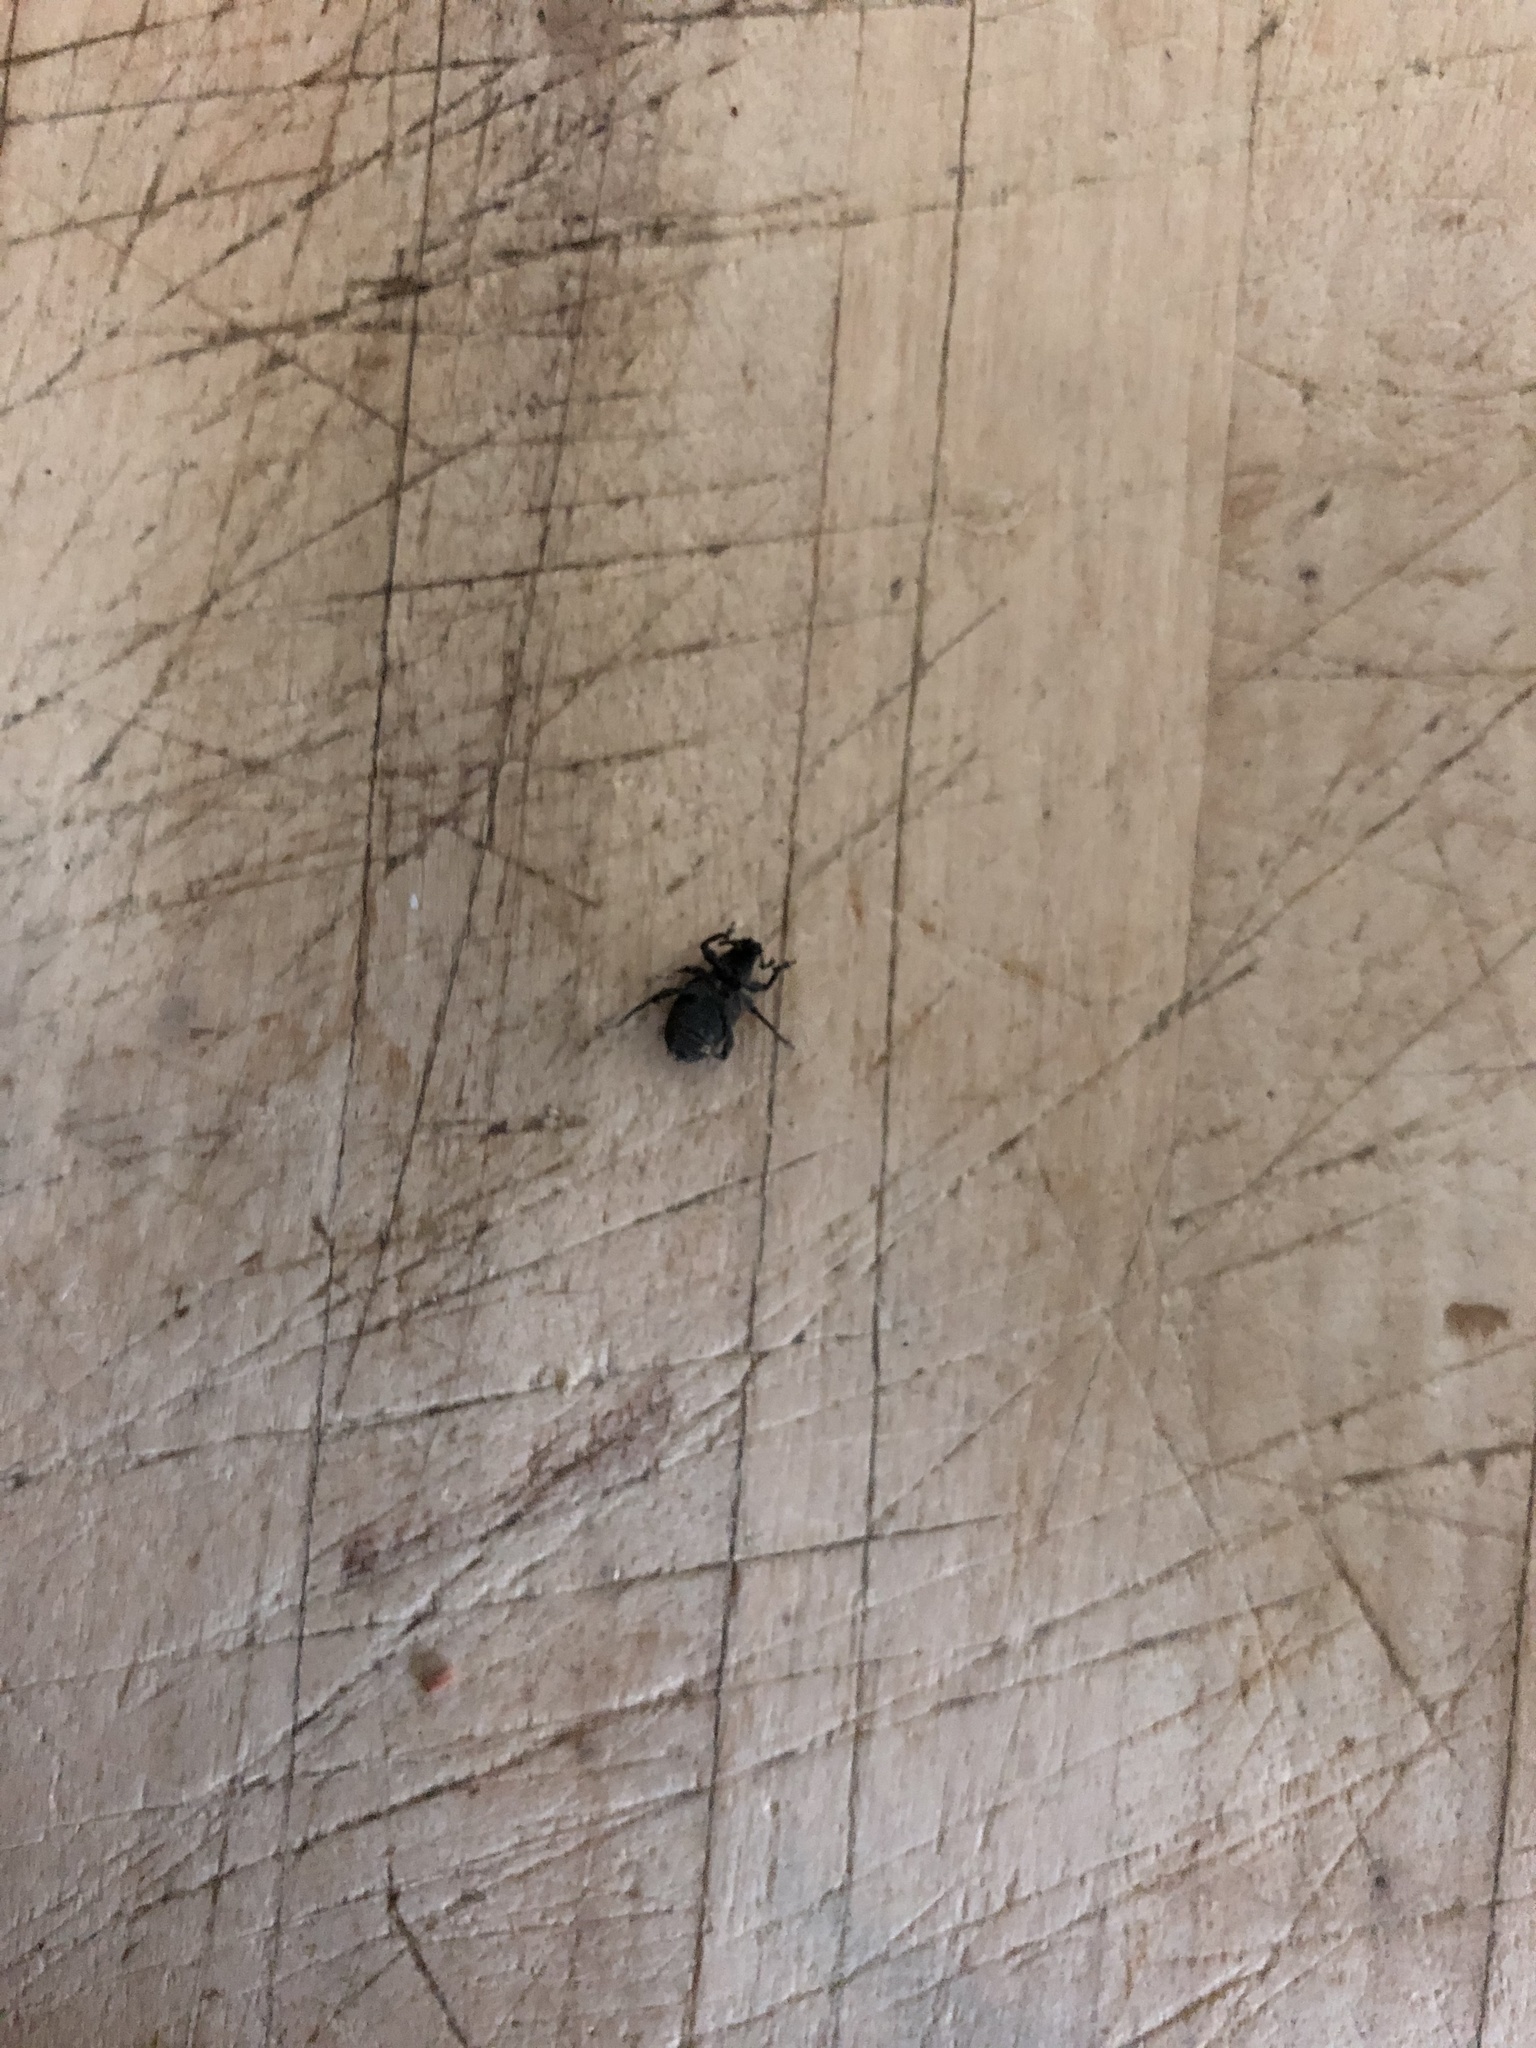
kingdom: Animalia
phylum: Arthropoda
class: Insecta
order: Coleoptera
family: Curculionidae
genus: Otiorhynchus
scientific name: Otiorhynchus meridionalis
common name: Weevil
